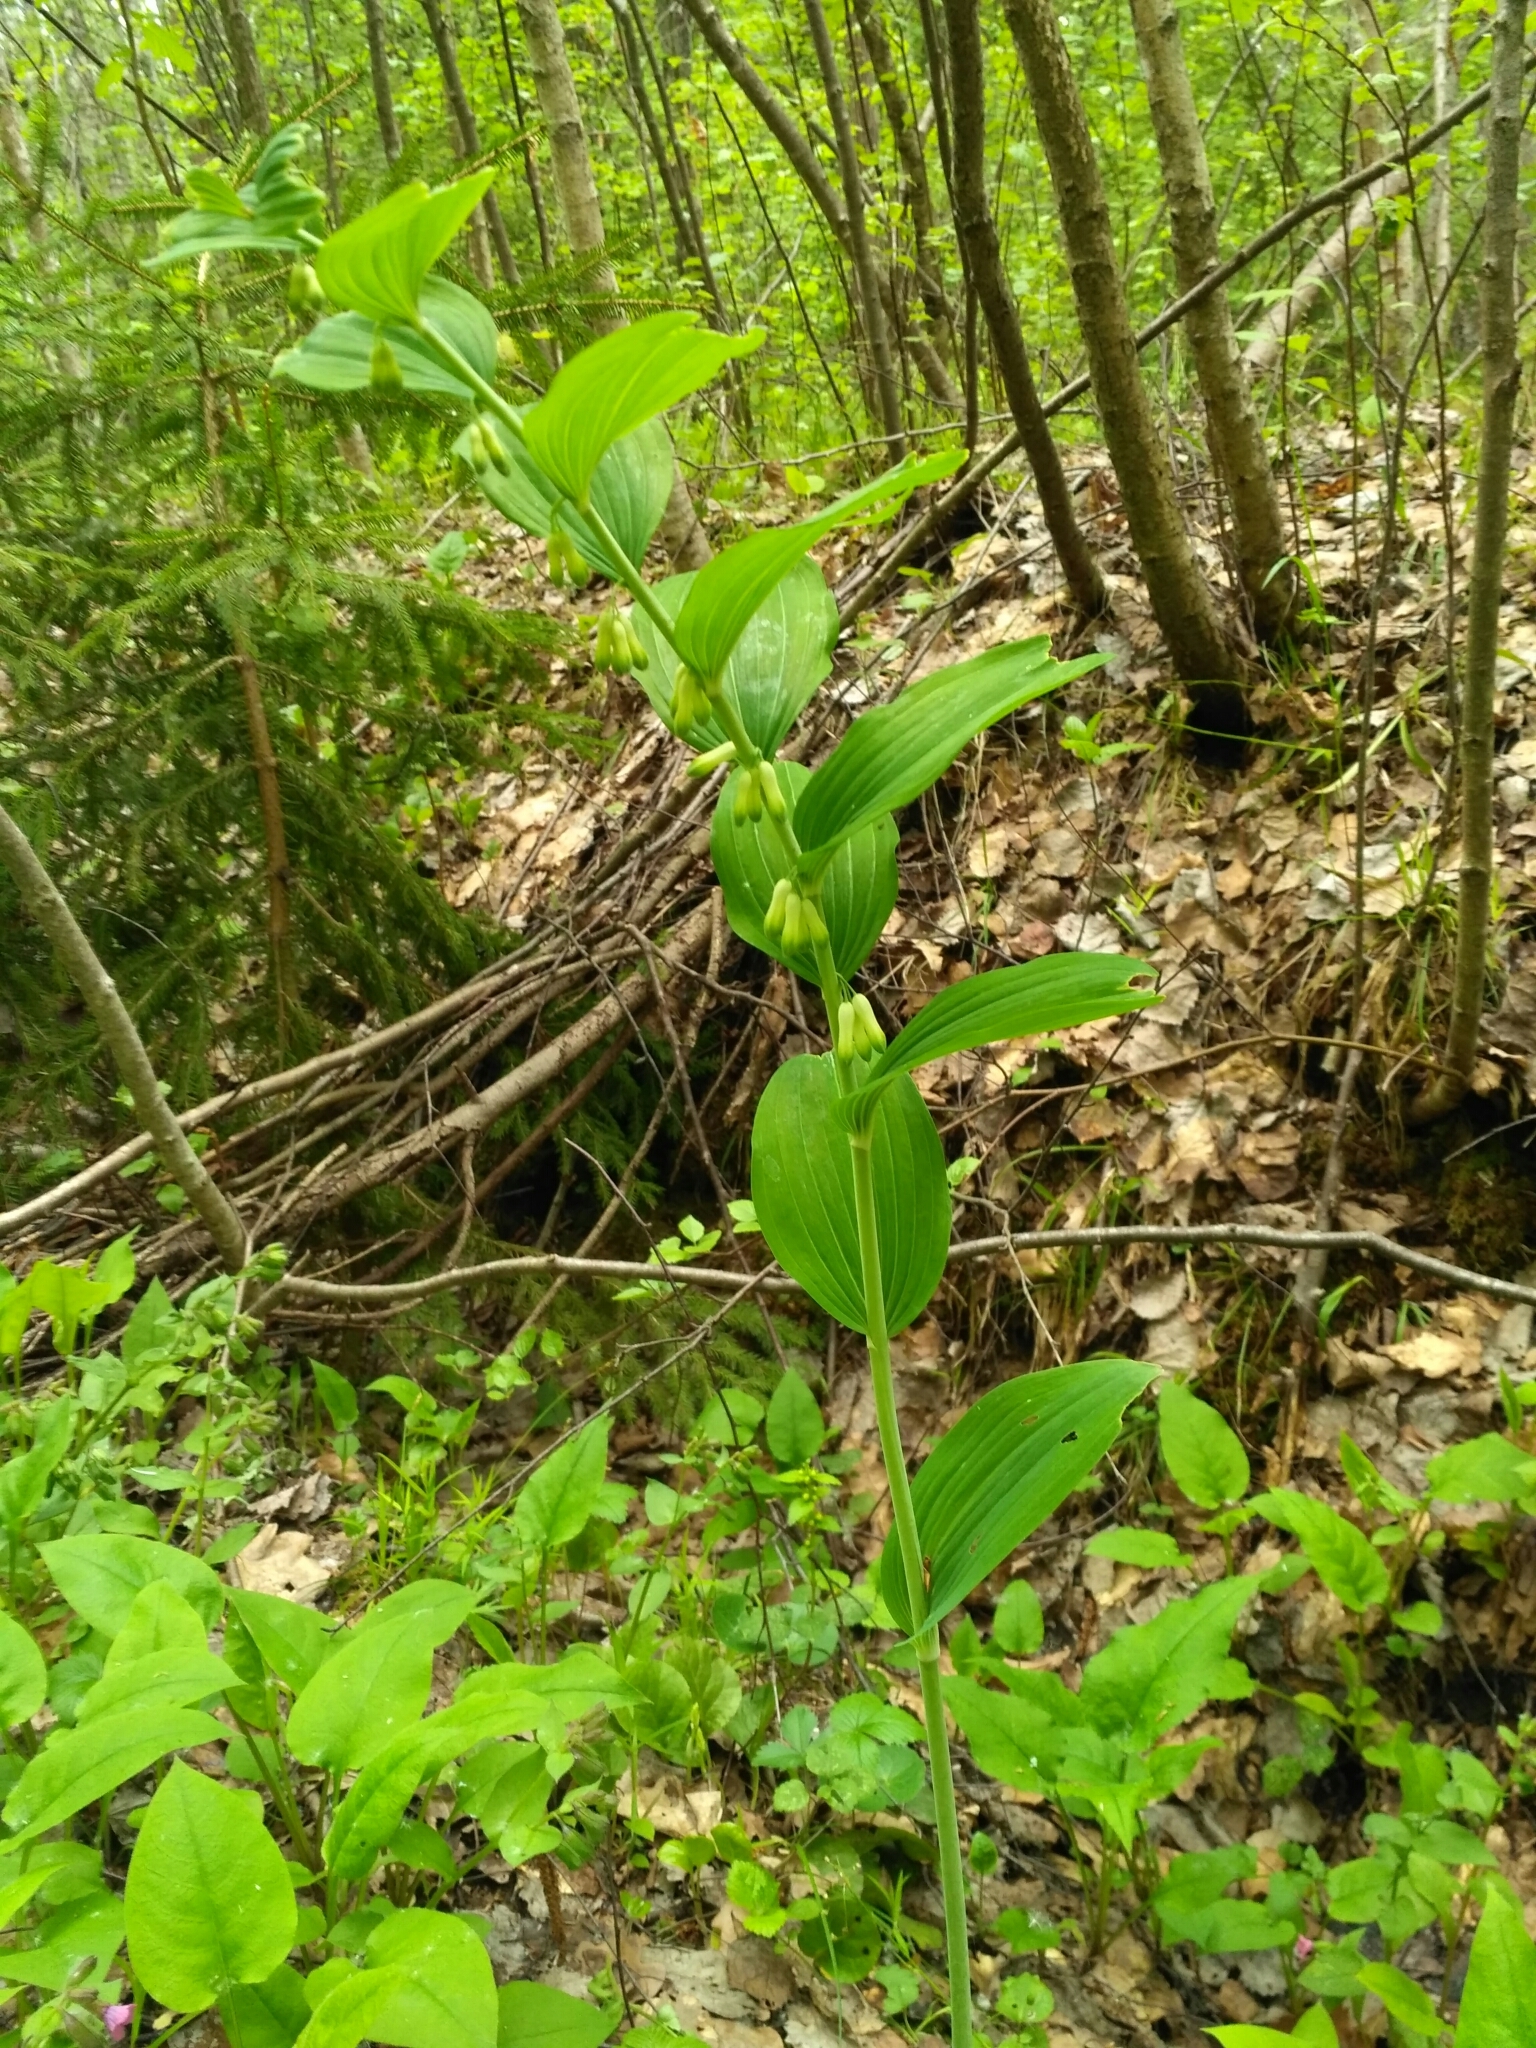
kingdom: Plantae
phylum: Tracheophyta
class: Liliopsida
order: Asparagales
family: Asparagaceae
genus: Polygonatum
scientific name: Polygonatum odoratum
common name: Angular solomon's-seal
